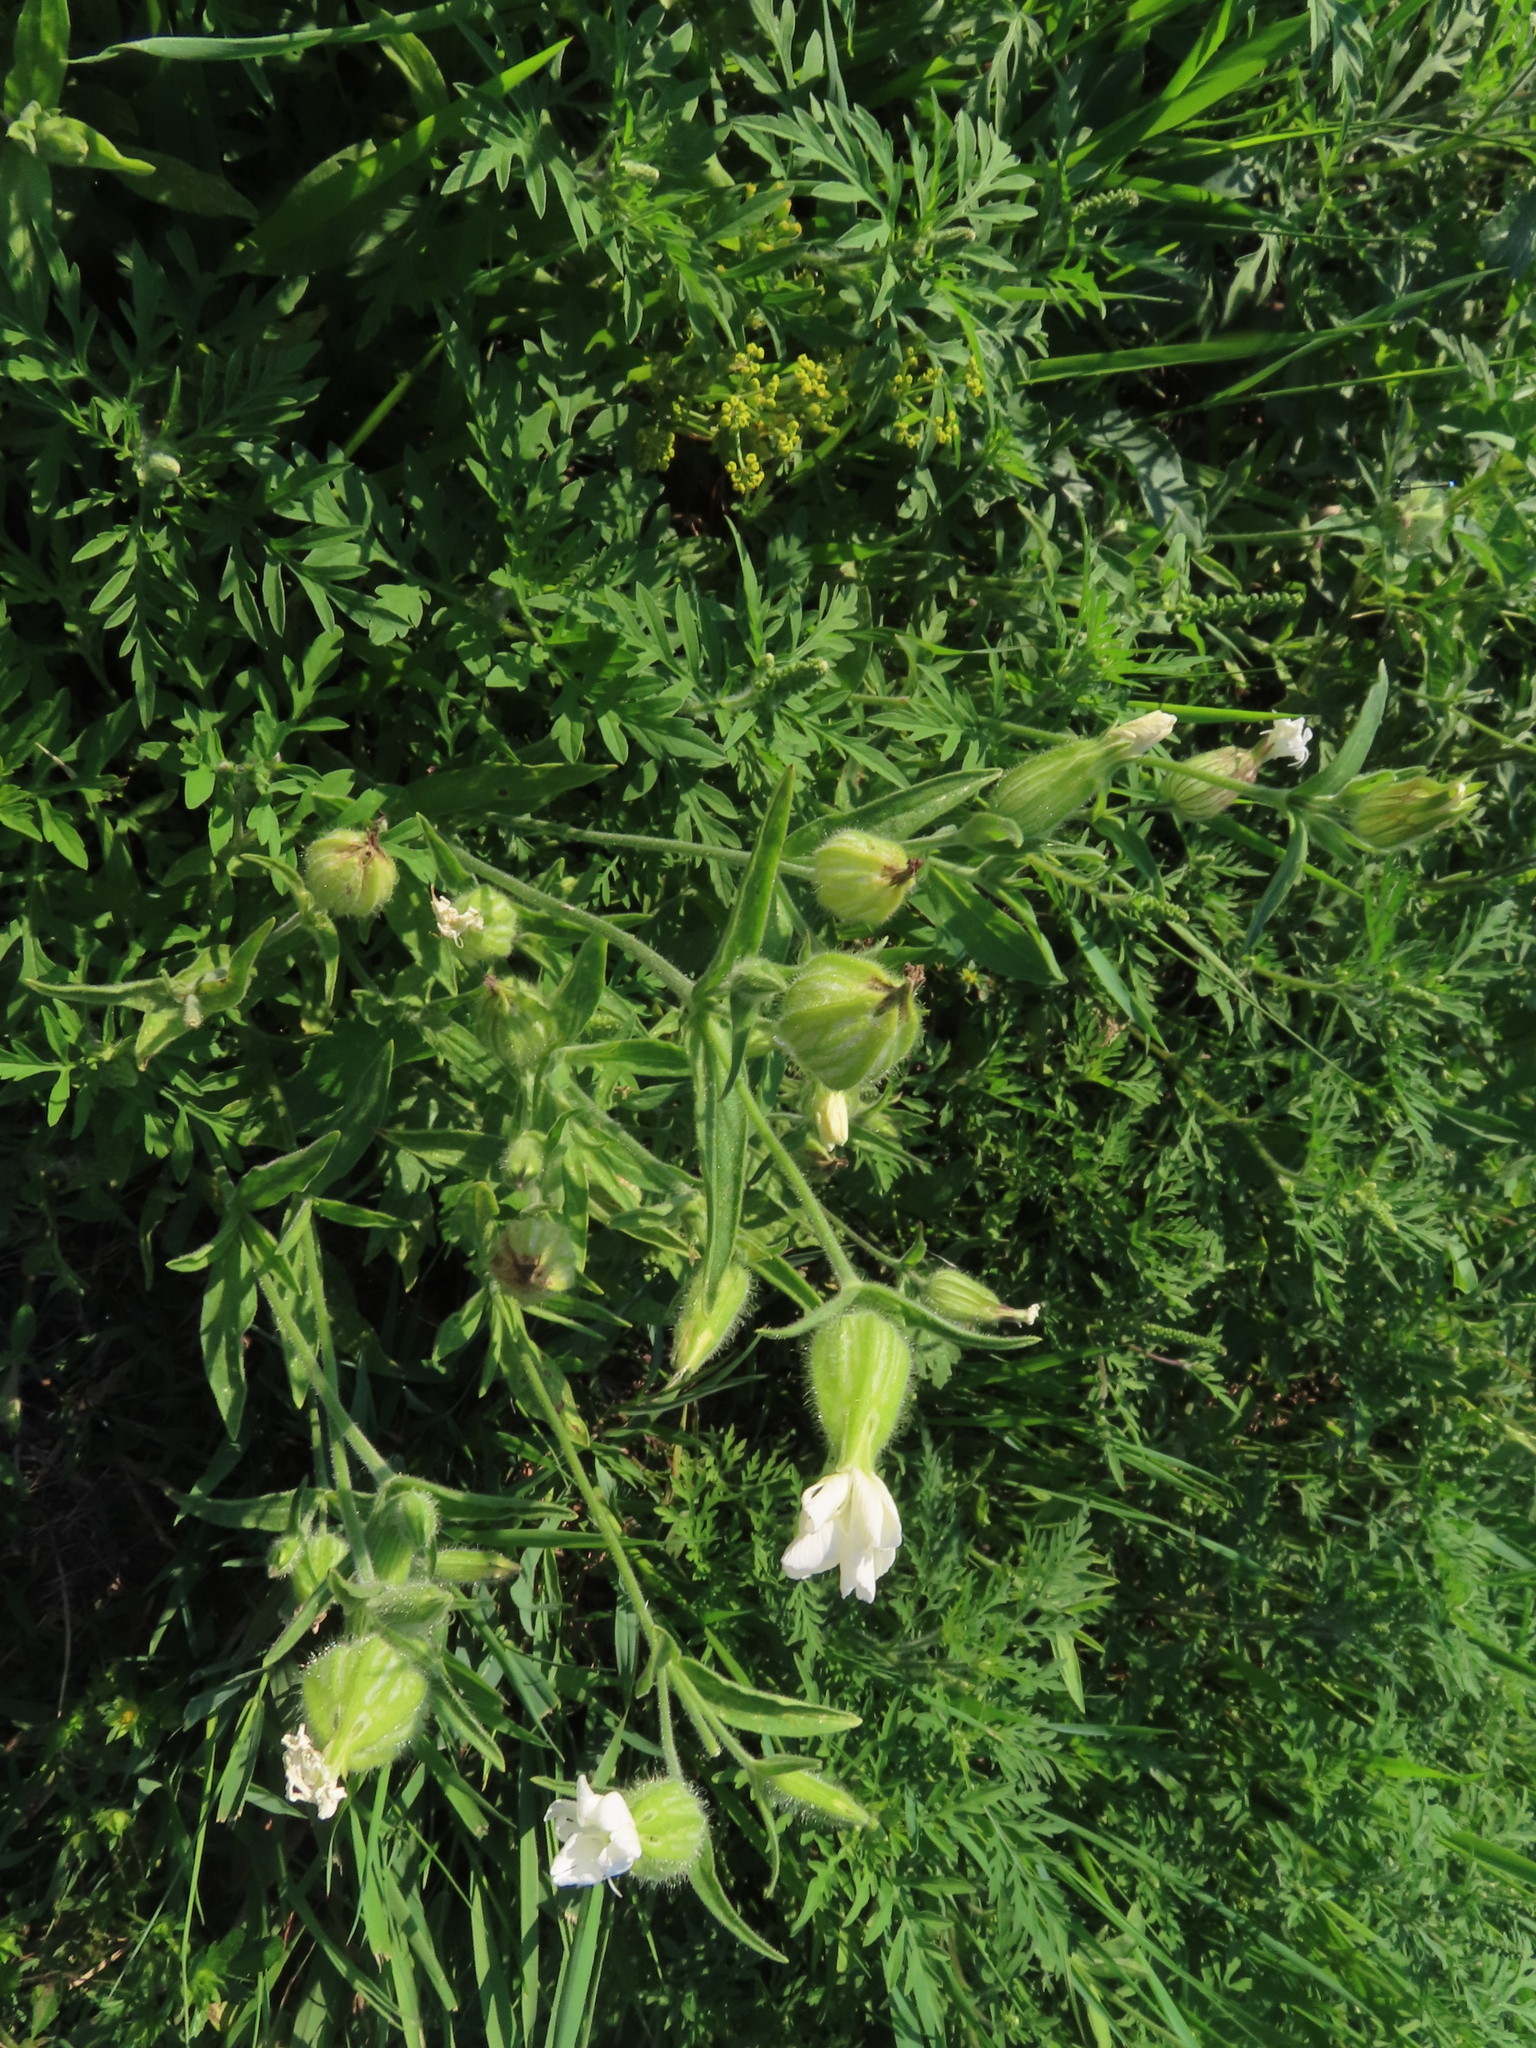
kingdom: Plantae
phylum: Tracheophyta
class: Magnoliopsida
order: Caryophyllales
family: Caryophyllaceae
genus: Silene
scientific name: Silene latifolia
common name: White campion
